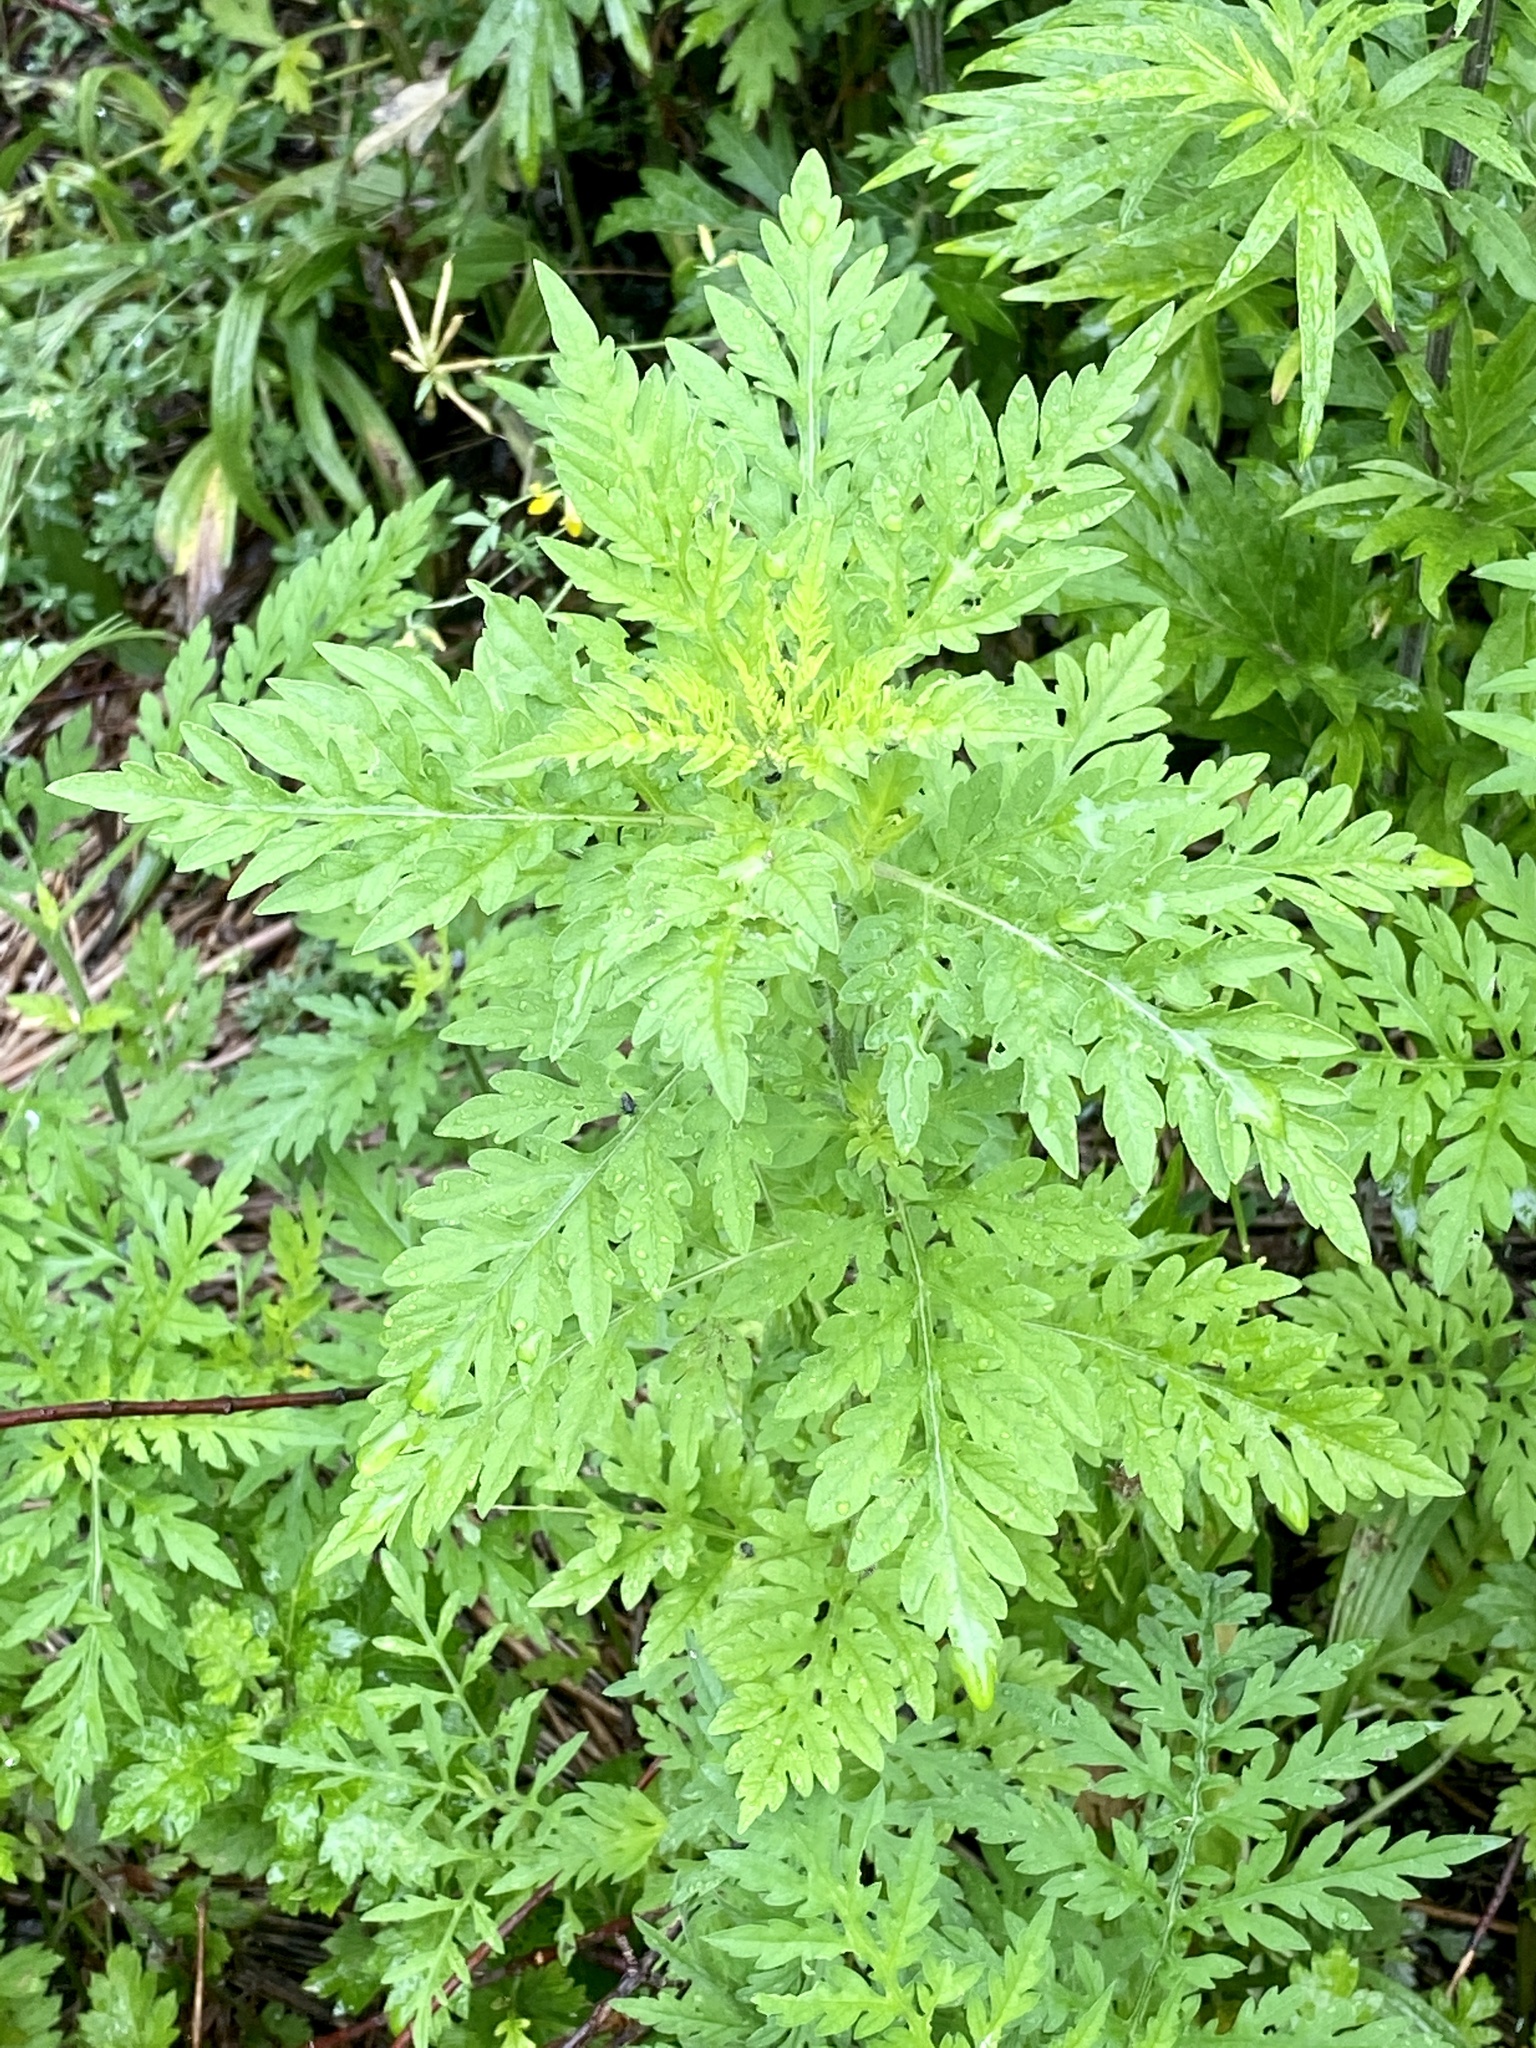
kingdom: Plantae
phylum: Tracheophyta
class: Magnoliopsida
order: Asterales
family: Asteraceae
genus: Ambrosia
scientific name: Ambrosia artemisiifolia
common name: Annual ragweed
